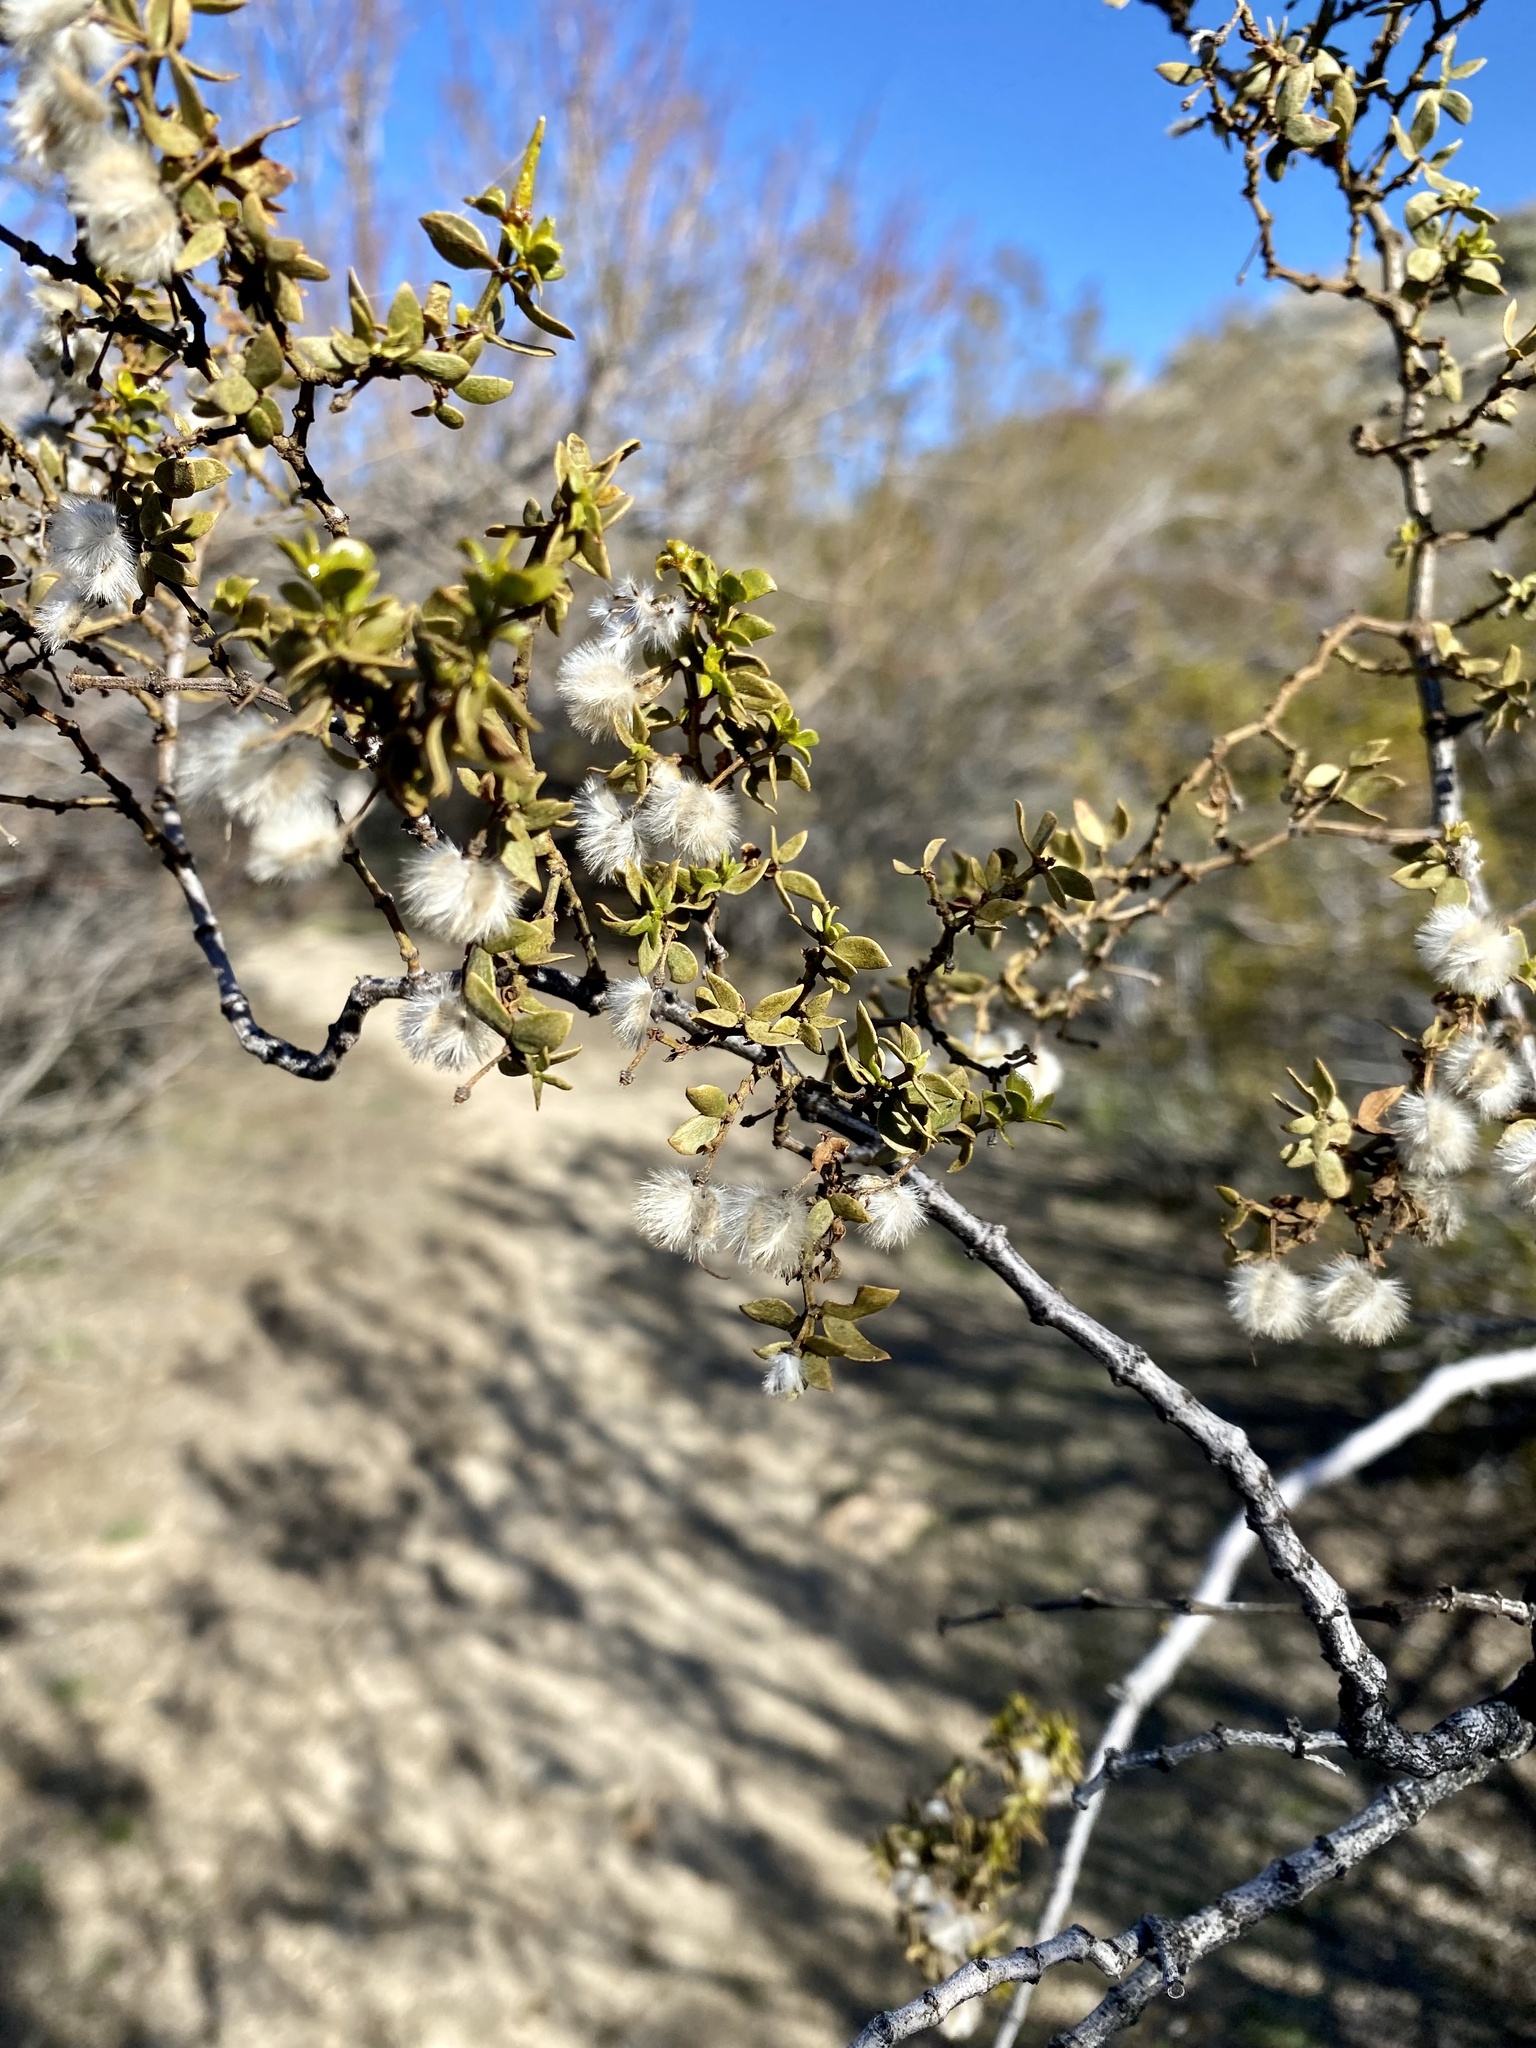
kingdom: Plantae
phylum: Tracheophyta
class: Magnoliopsida
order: Zygophyllales
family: Zygophyllaceae
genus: Larrea
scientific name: Larrea tridentata
